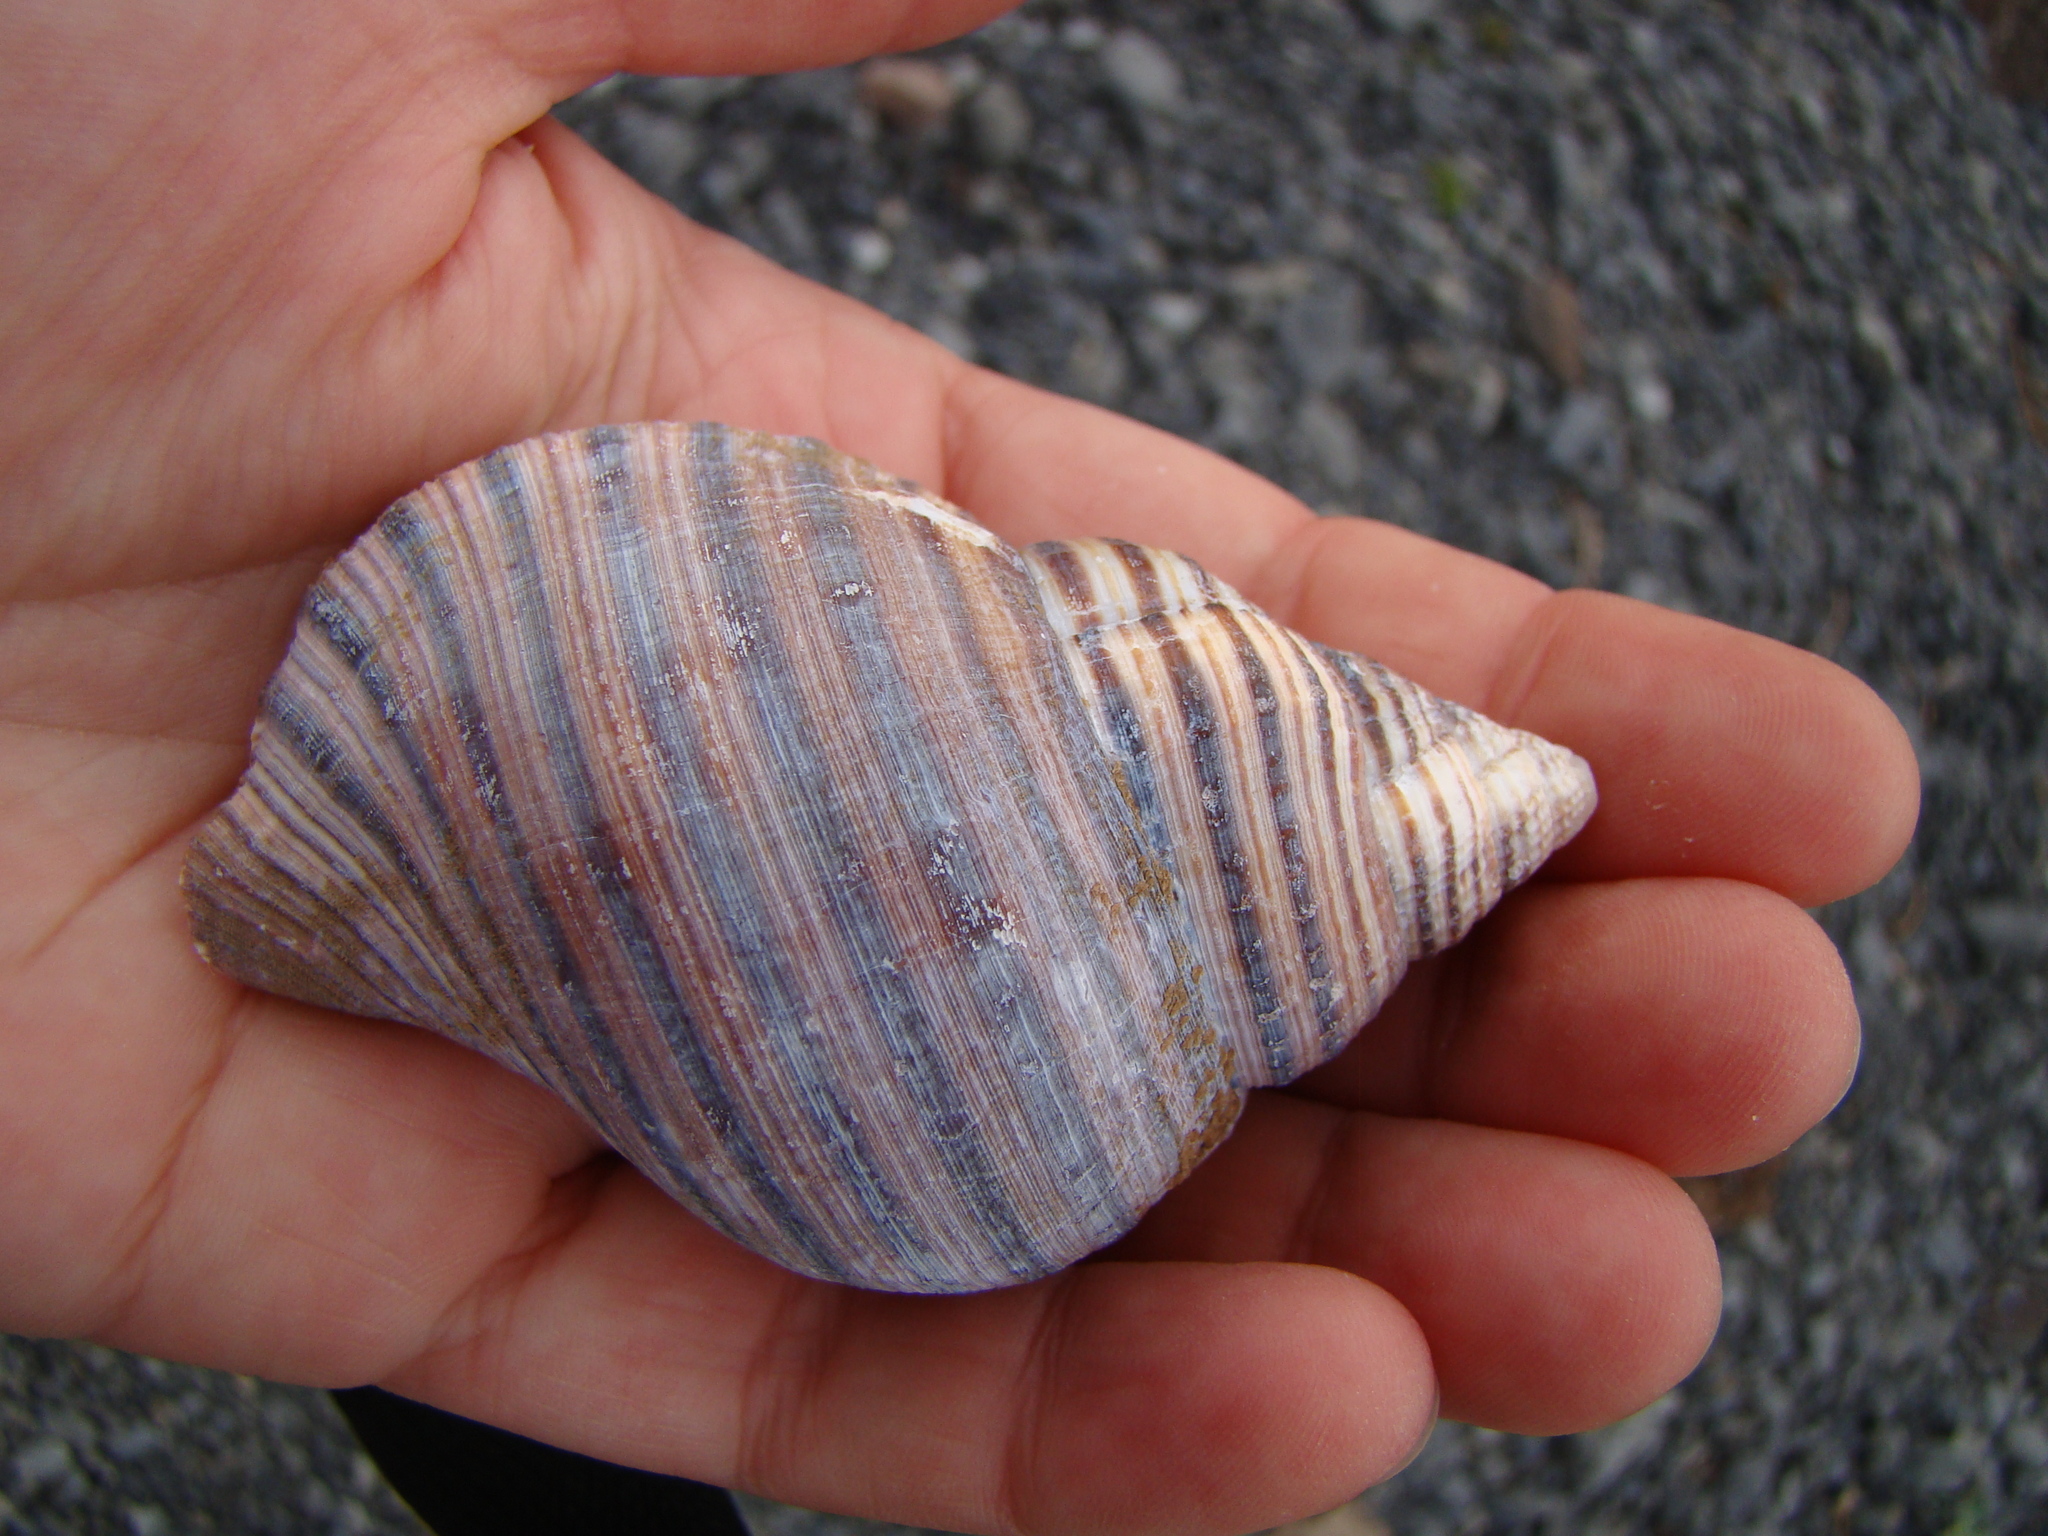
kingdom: Animalia
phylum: Mollusca
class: Gastropoda
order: Littorinimorpha
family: Cymatiidae
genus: Argobuccinum
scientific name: Argobuccinum pustulosum
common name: Pustular triton
